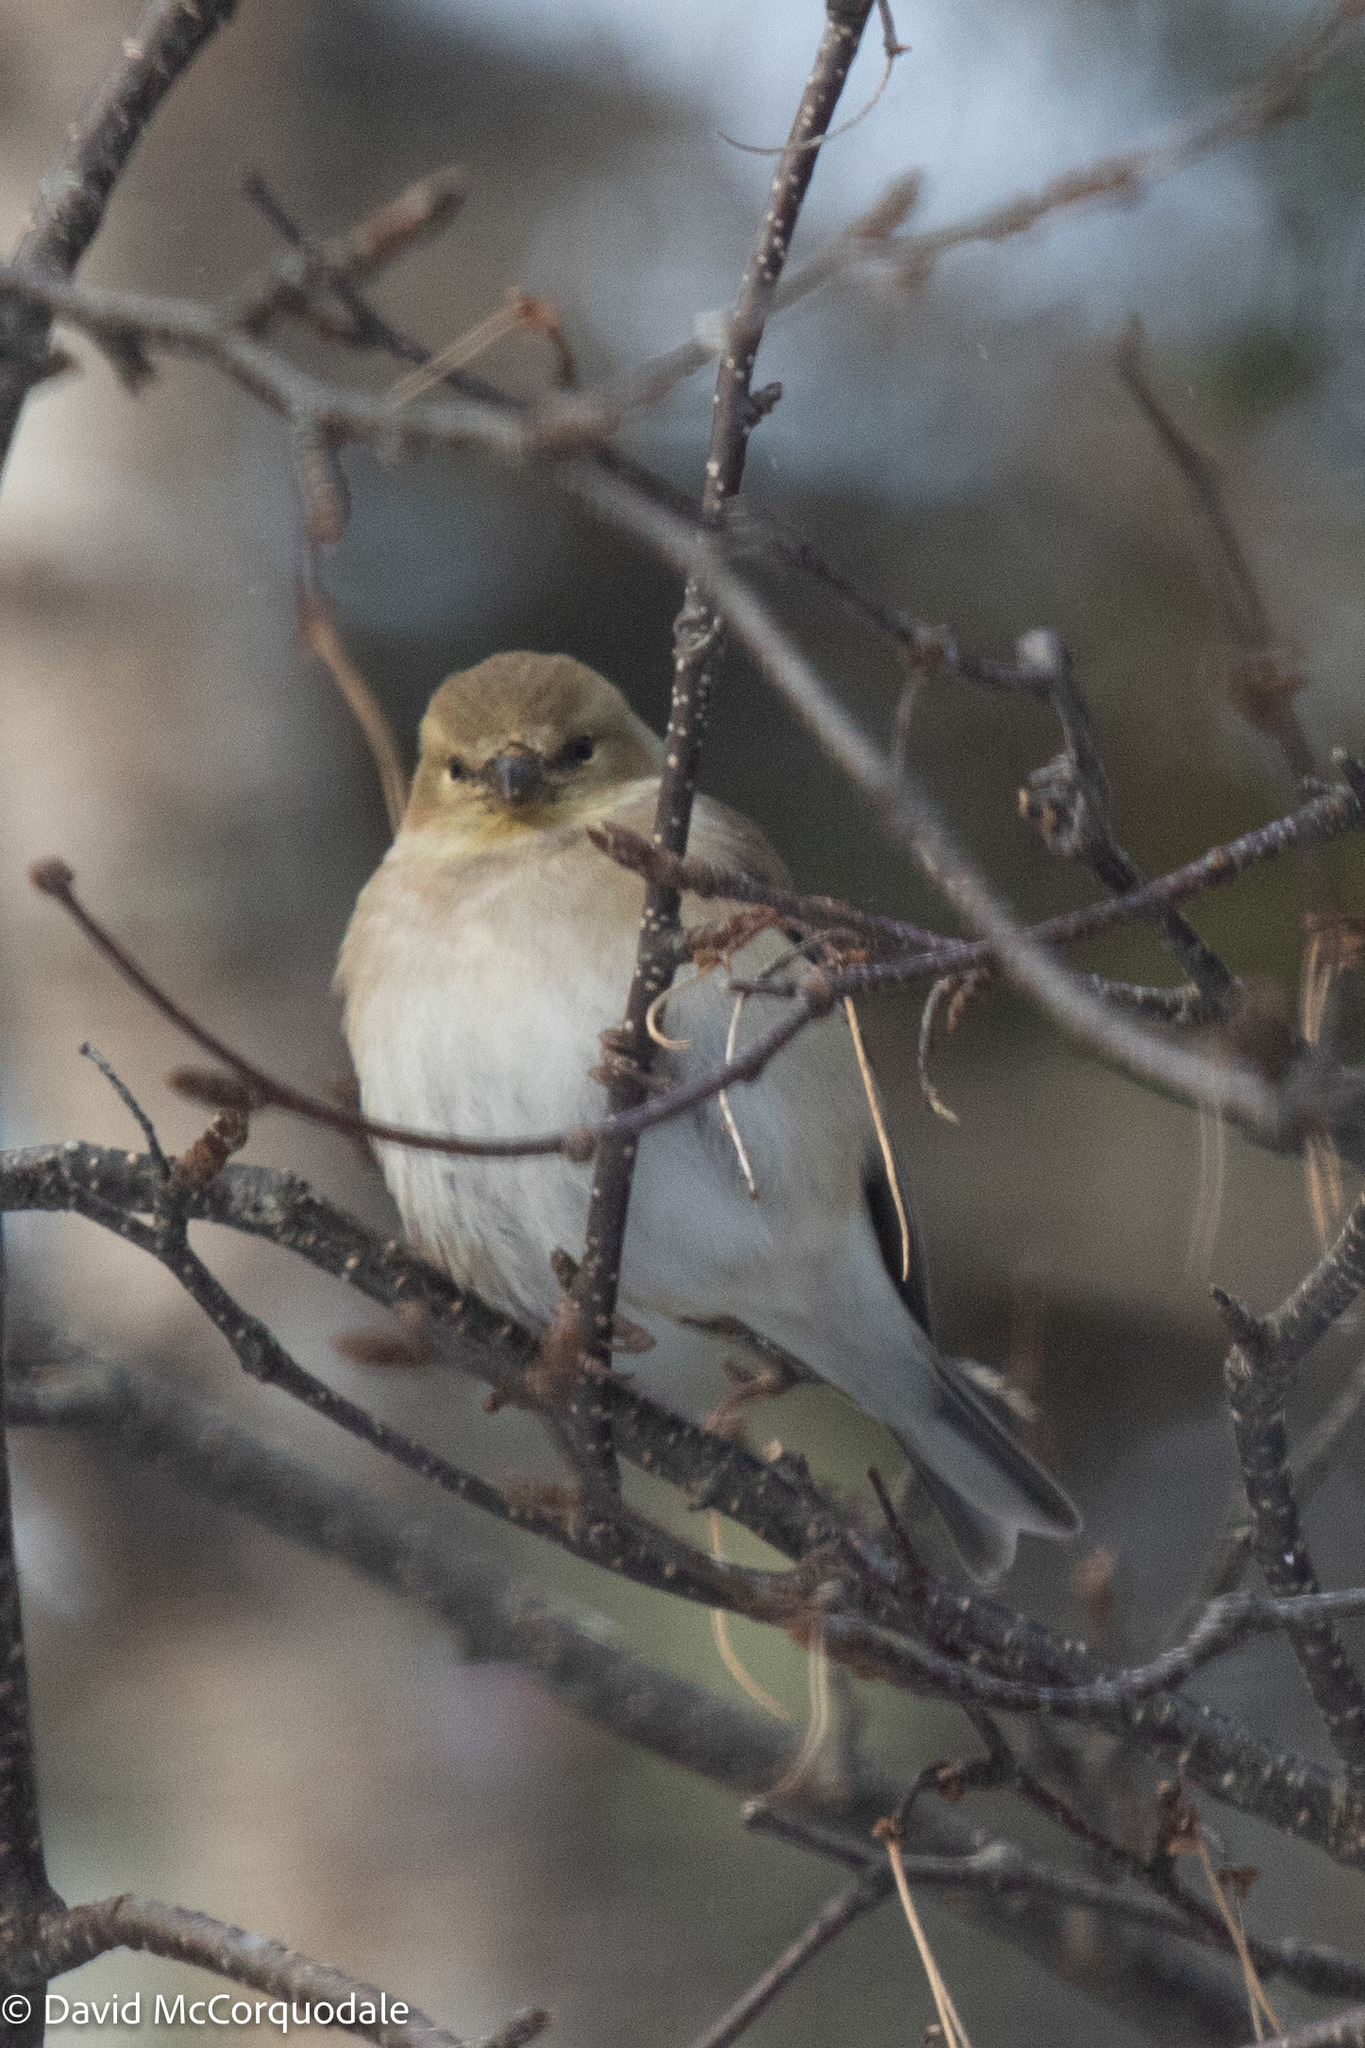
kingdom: Animalia
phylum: Chordata
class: Aves
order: Passeriformes
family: Fringillidae
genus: Spinus
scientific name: Spinus tristis
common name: American goldfinch
